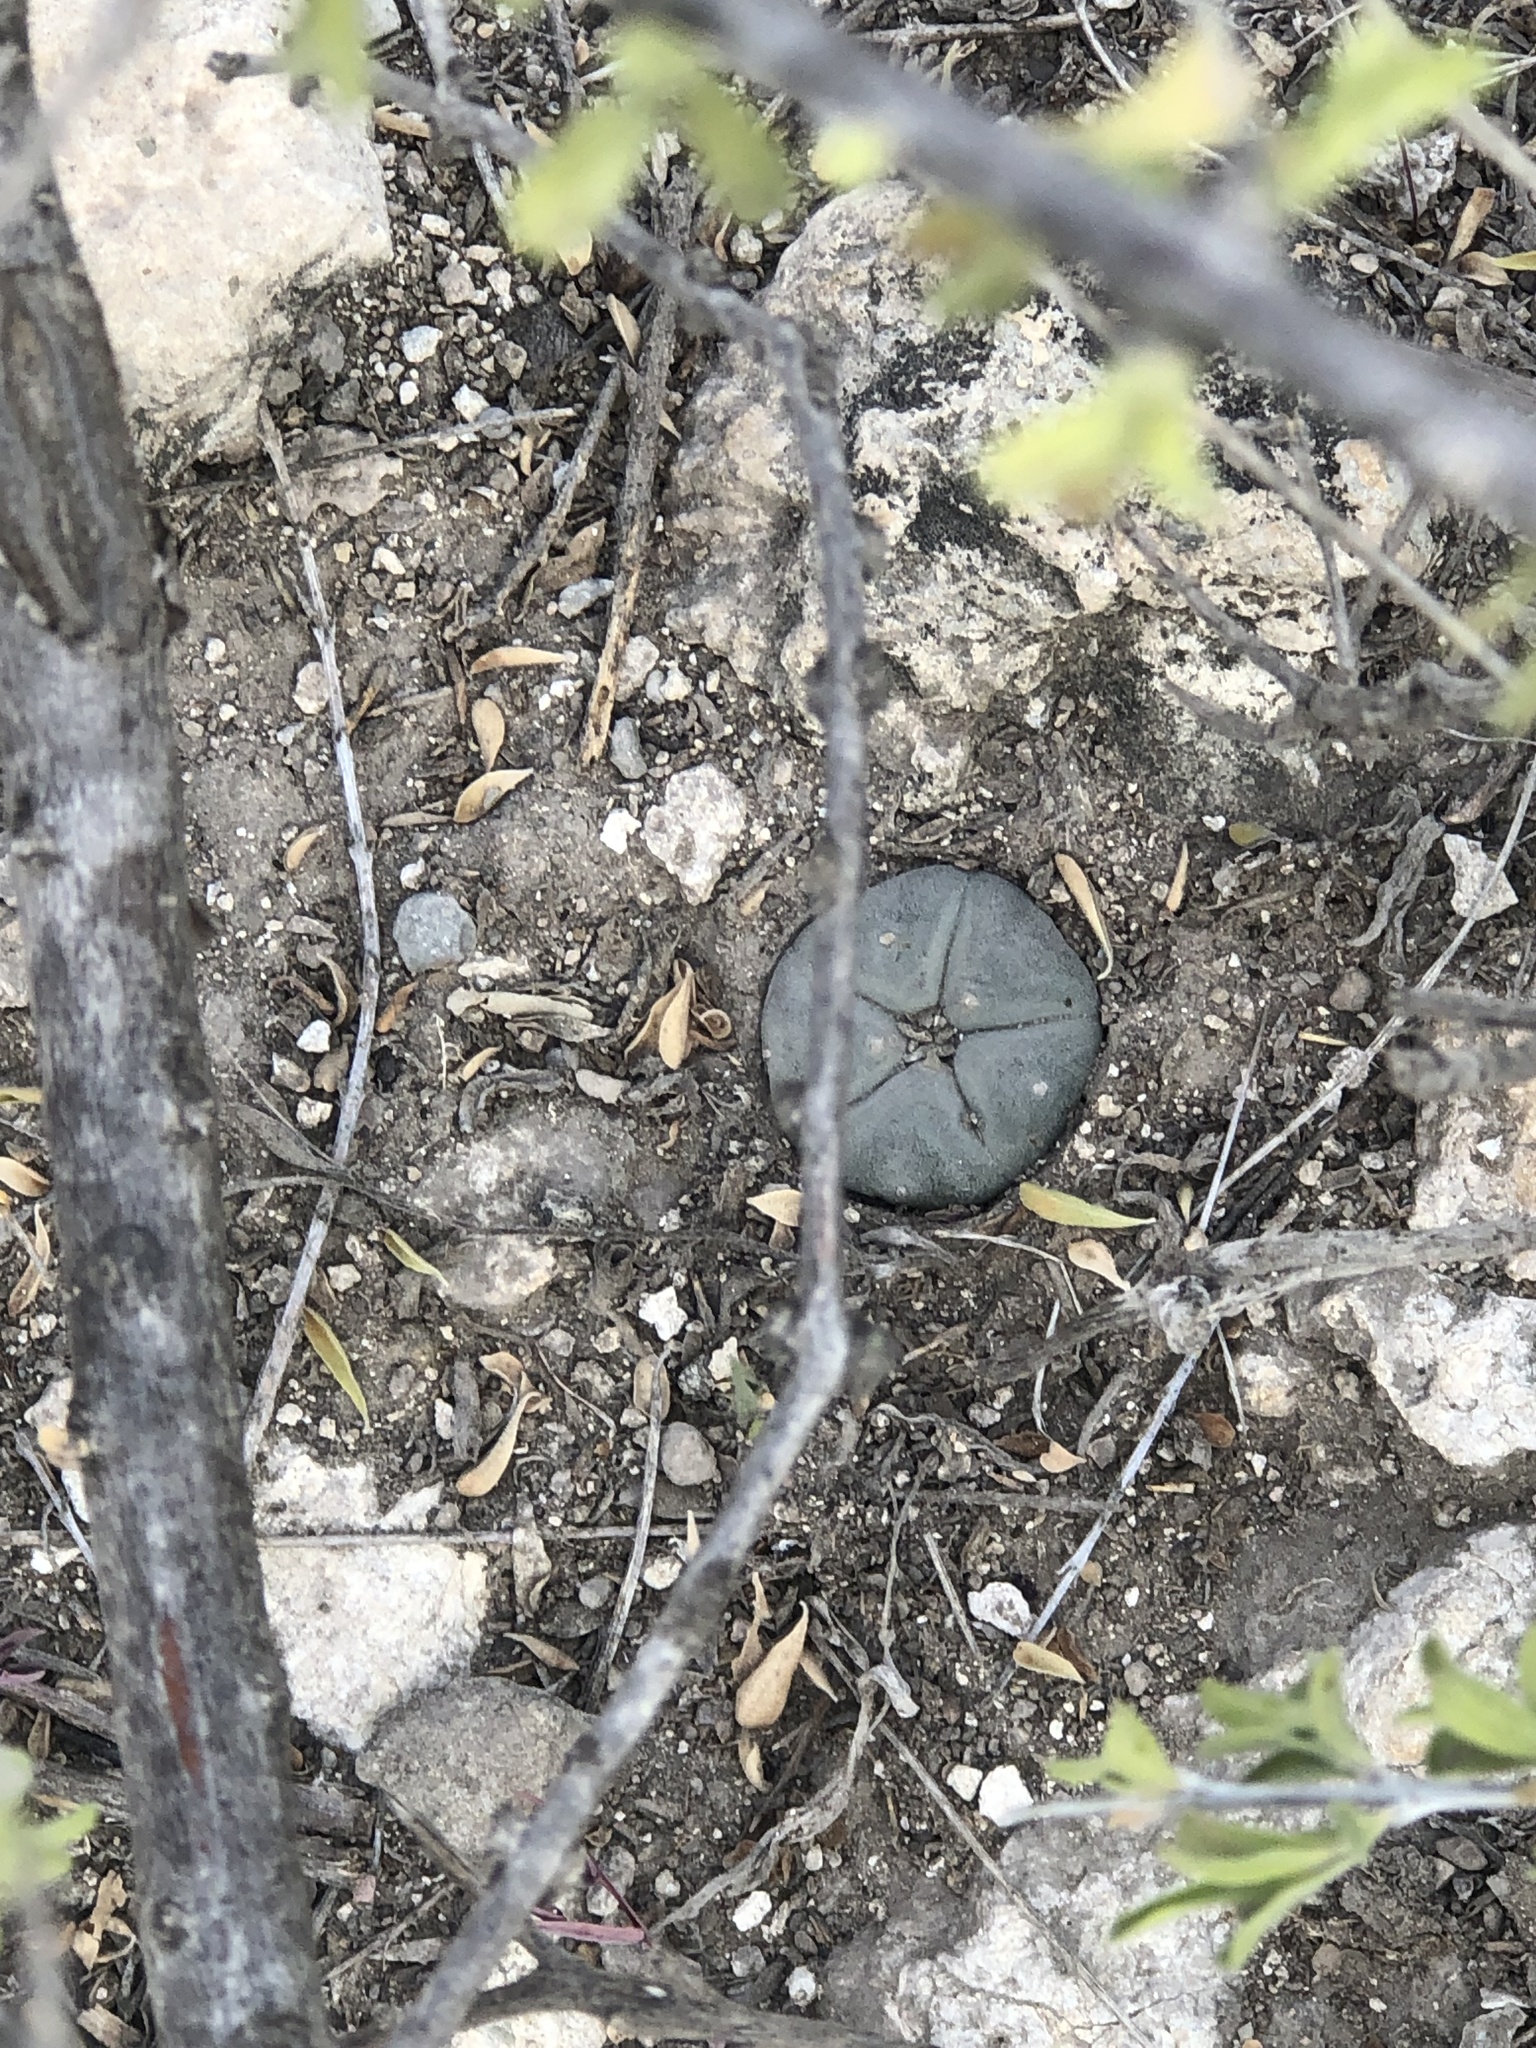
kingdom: Plantae
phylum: Tracheophyta
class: Magnoliopsida
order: Caryophyllales
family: Cactaceae
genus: Lophophora
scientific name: Lophophora williamsii
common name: Indian-dope
